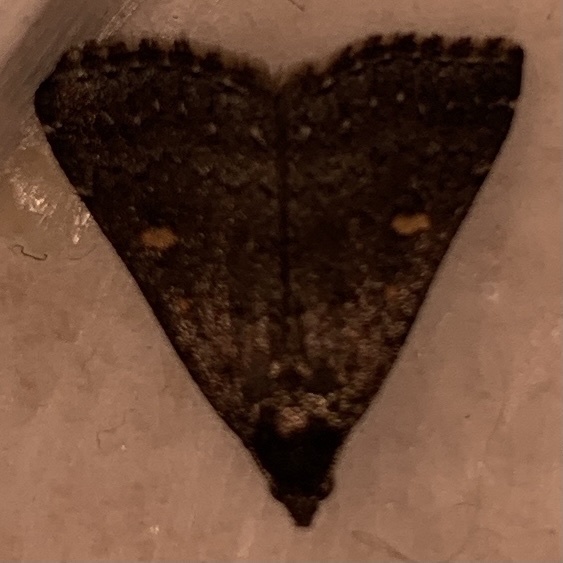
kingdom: Animalia
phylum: Arthropoda
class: Insecta
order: Lepidoptera
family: Erebidae
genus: Tetanolita
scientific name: Tetanolita mynesalis
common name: Smoky tetanolita moth
